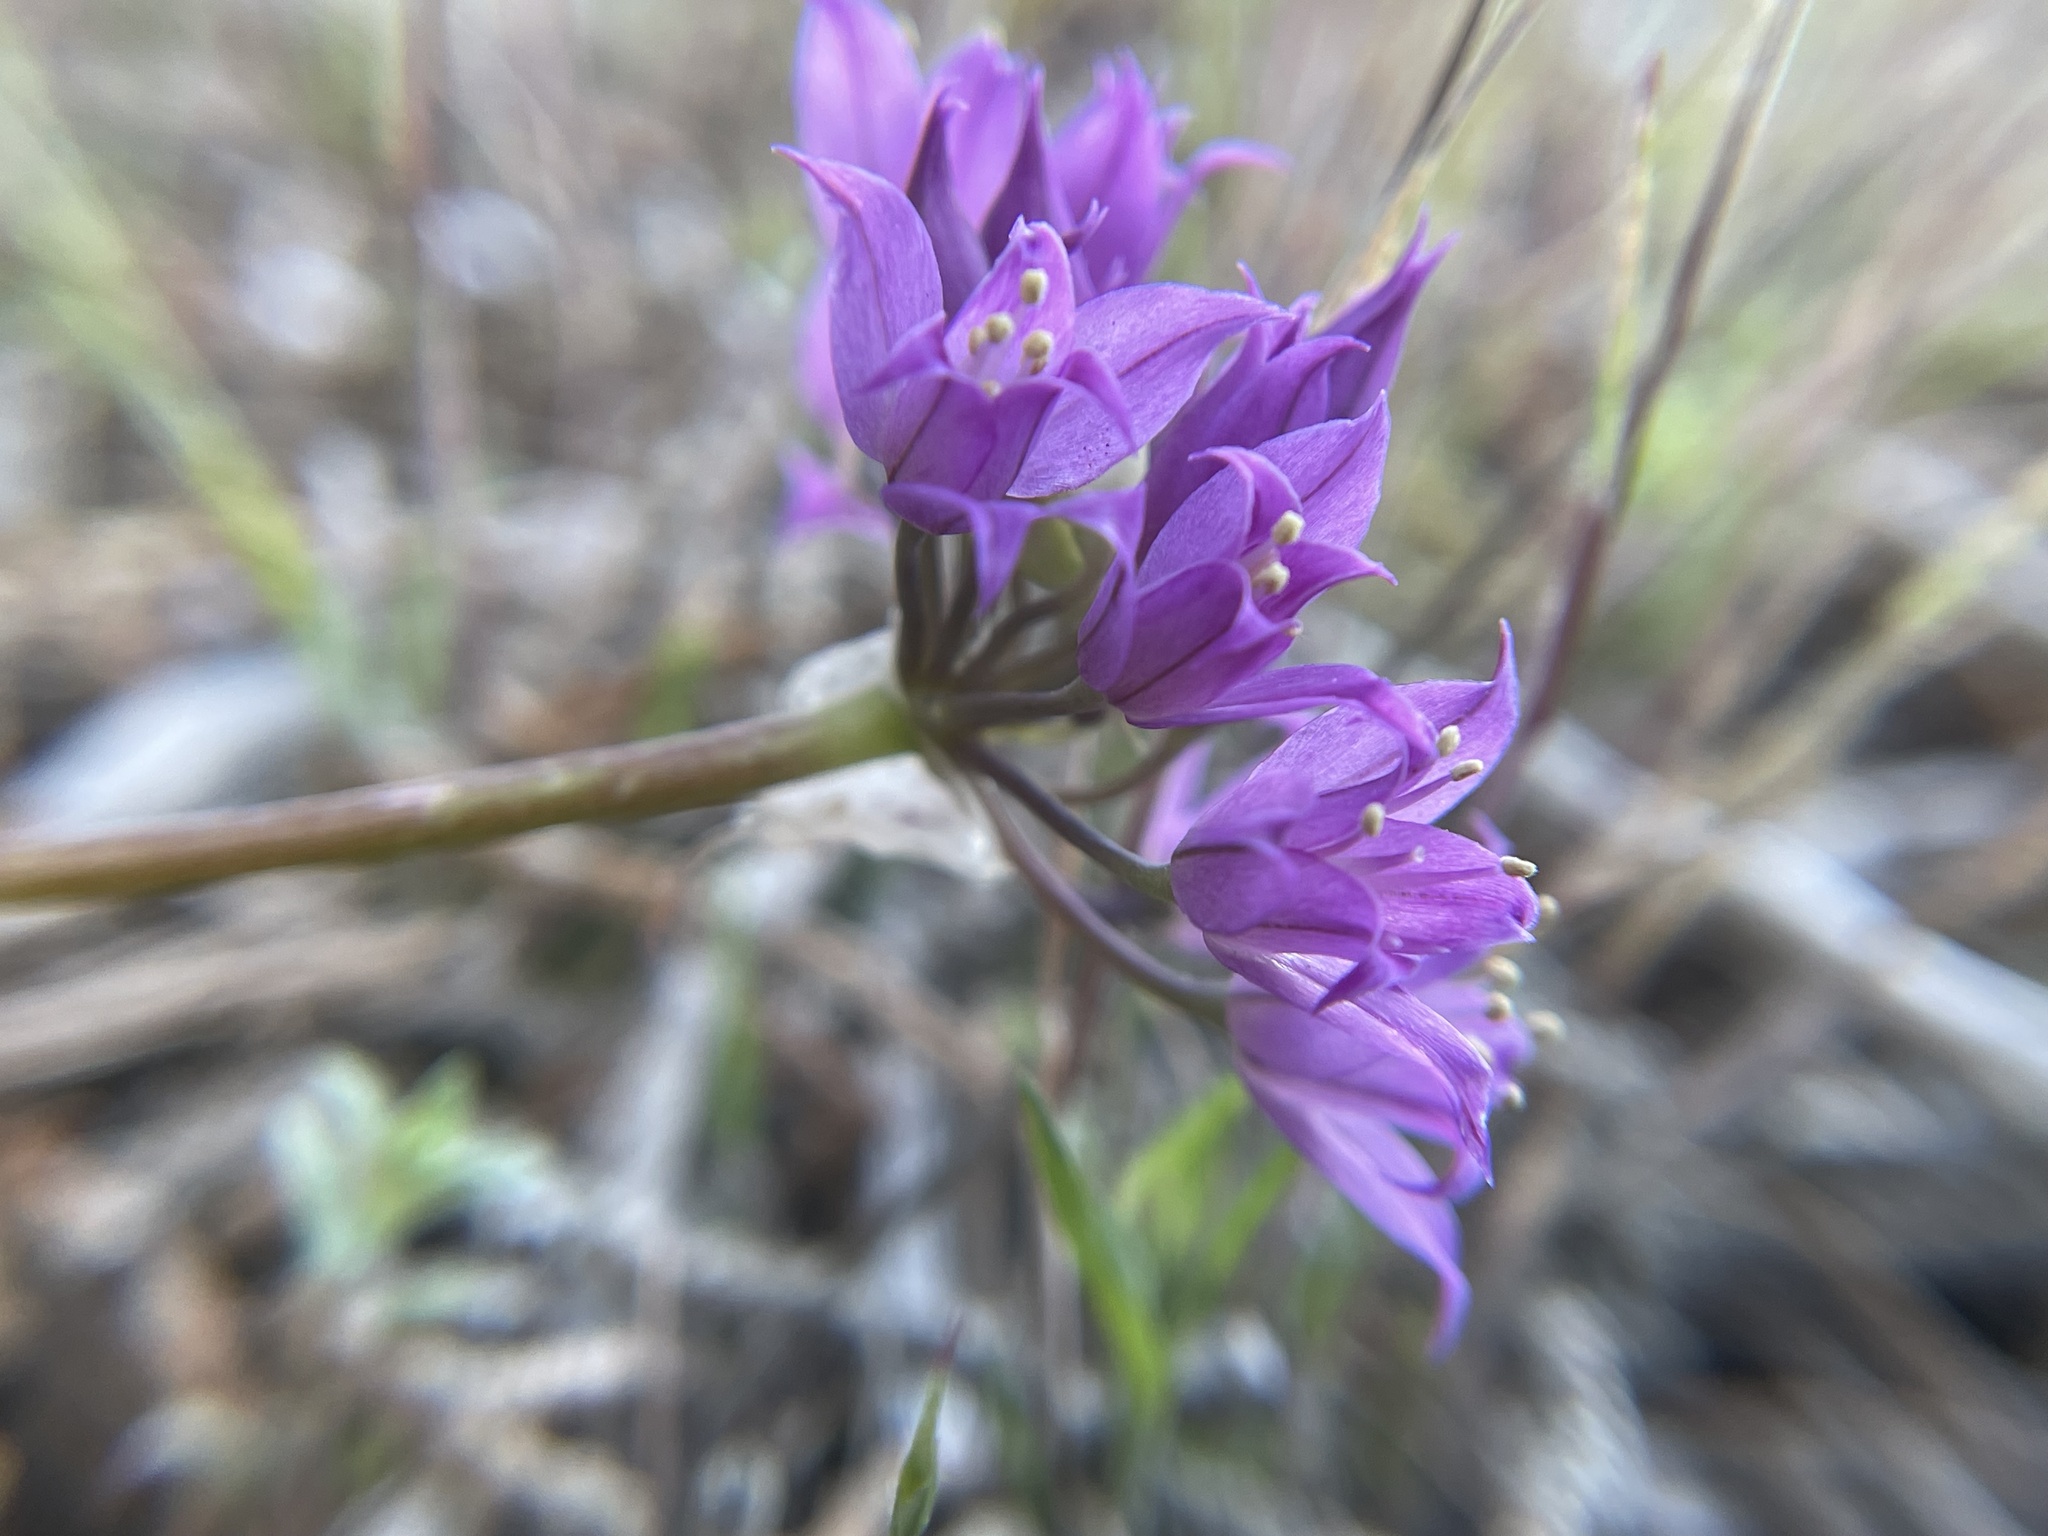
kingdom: Plantae
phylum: Tracheophyta
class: Liliopsida
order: Asparagales
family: Amaryllidaceae
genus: Allium
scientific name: Allium acuminatum
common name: Hooker's onion
